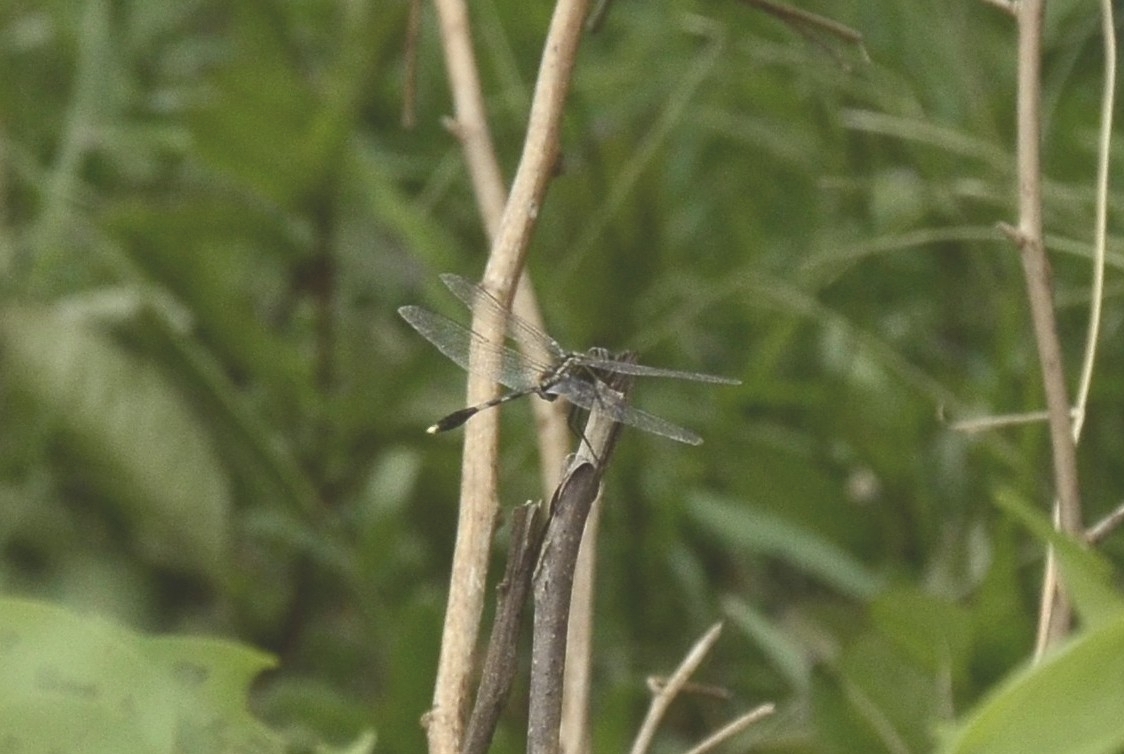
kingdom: Animalia
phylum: Arthropoda
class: Insecta
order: Odonata
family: Libellulidae
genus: Orthetrum
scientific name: Orthetrum sabina
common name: Slender skimmer
